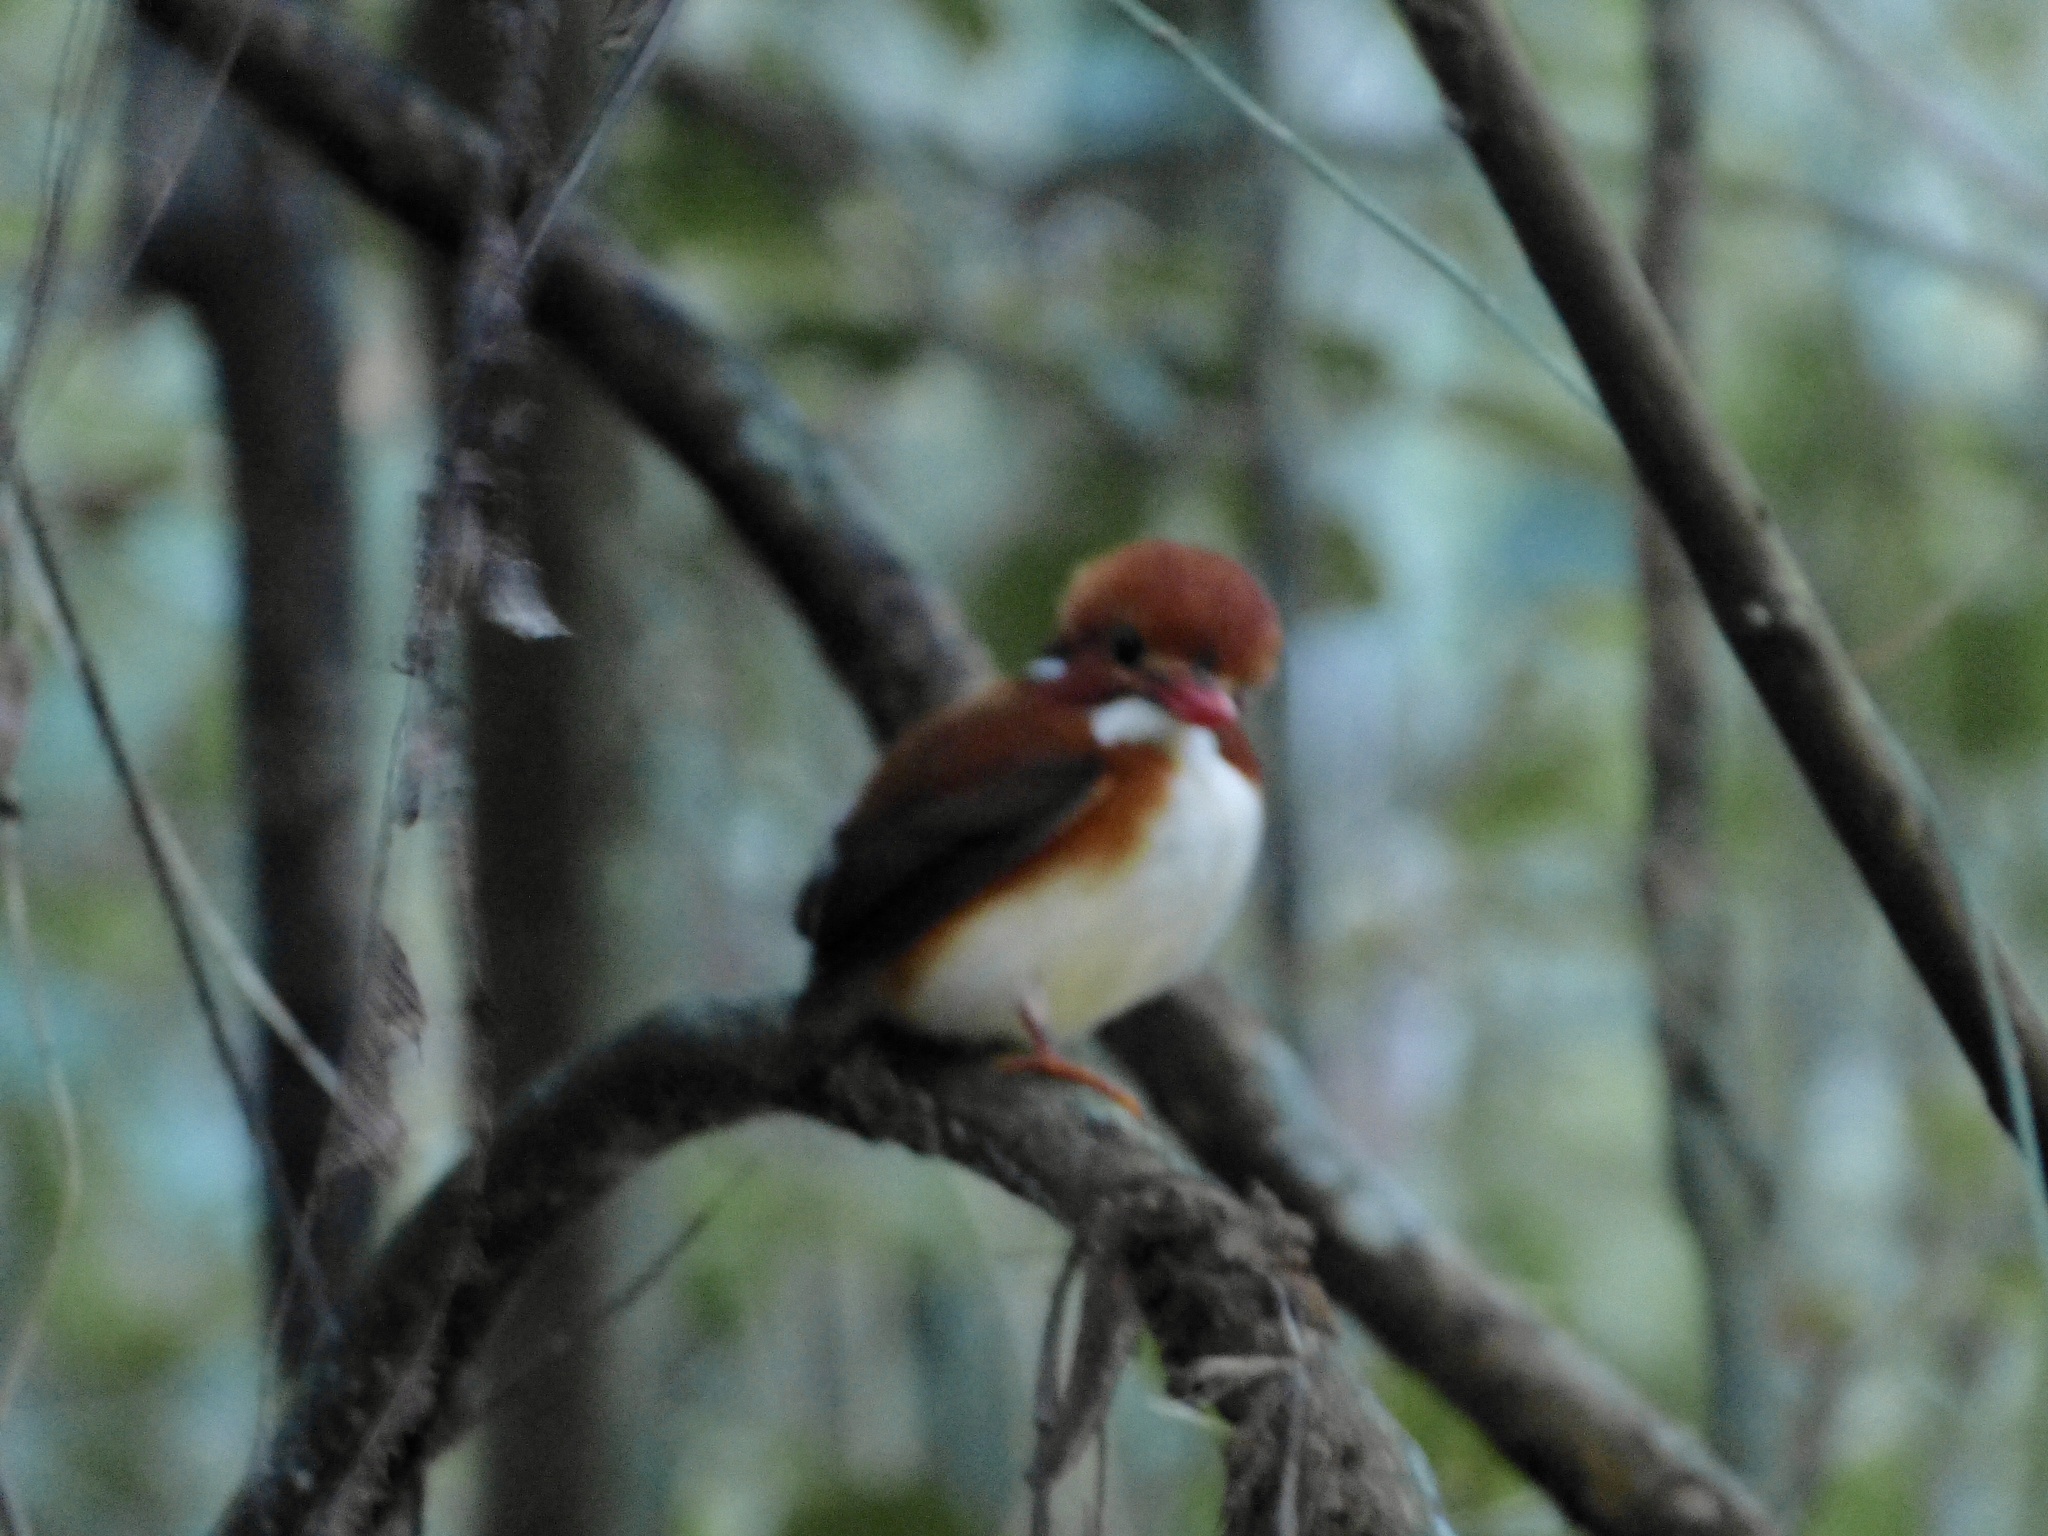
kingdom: Animalia
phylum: Chordata
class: Aves
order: Coraciiformes
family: Alcedinidae
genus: Corythornis
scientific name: Corythornis madagascariensis
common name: Madagascar pygmy-kingfisher
